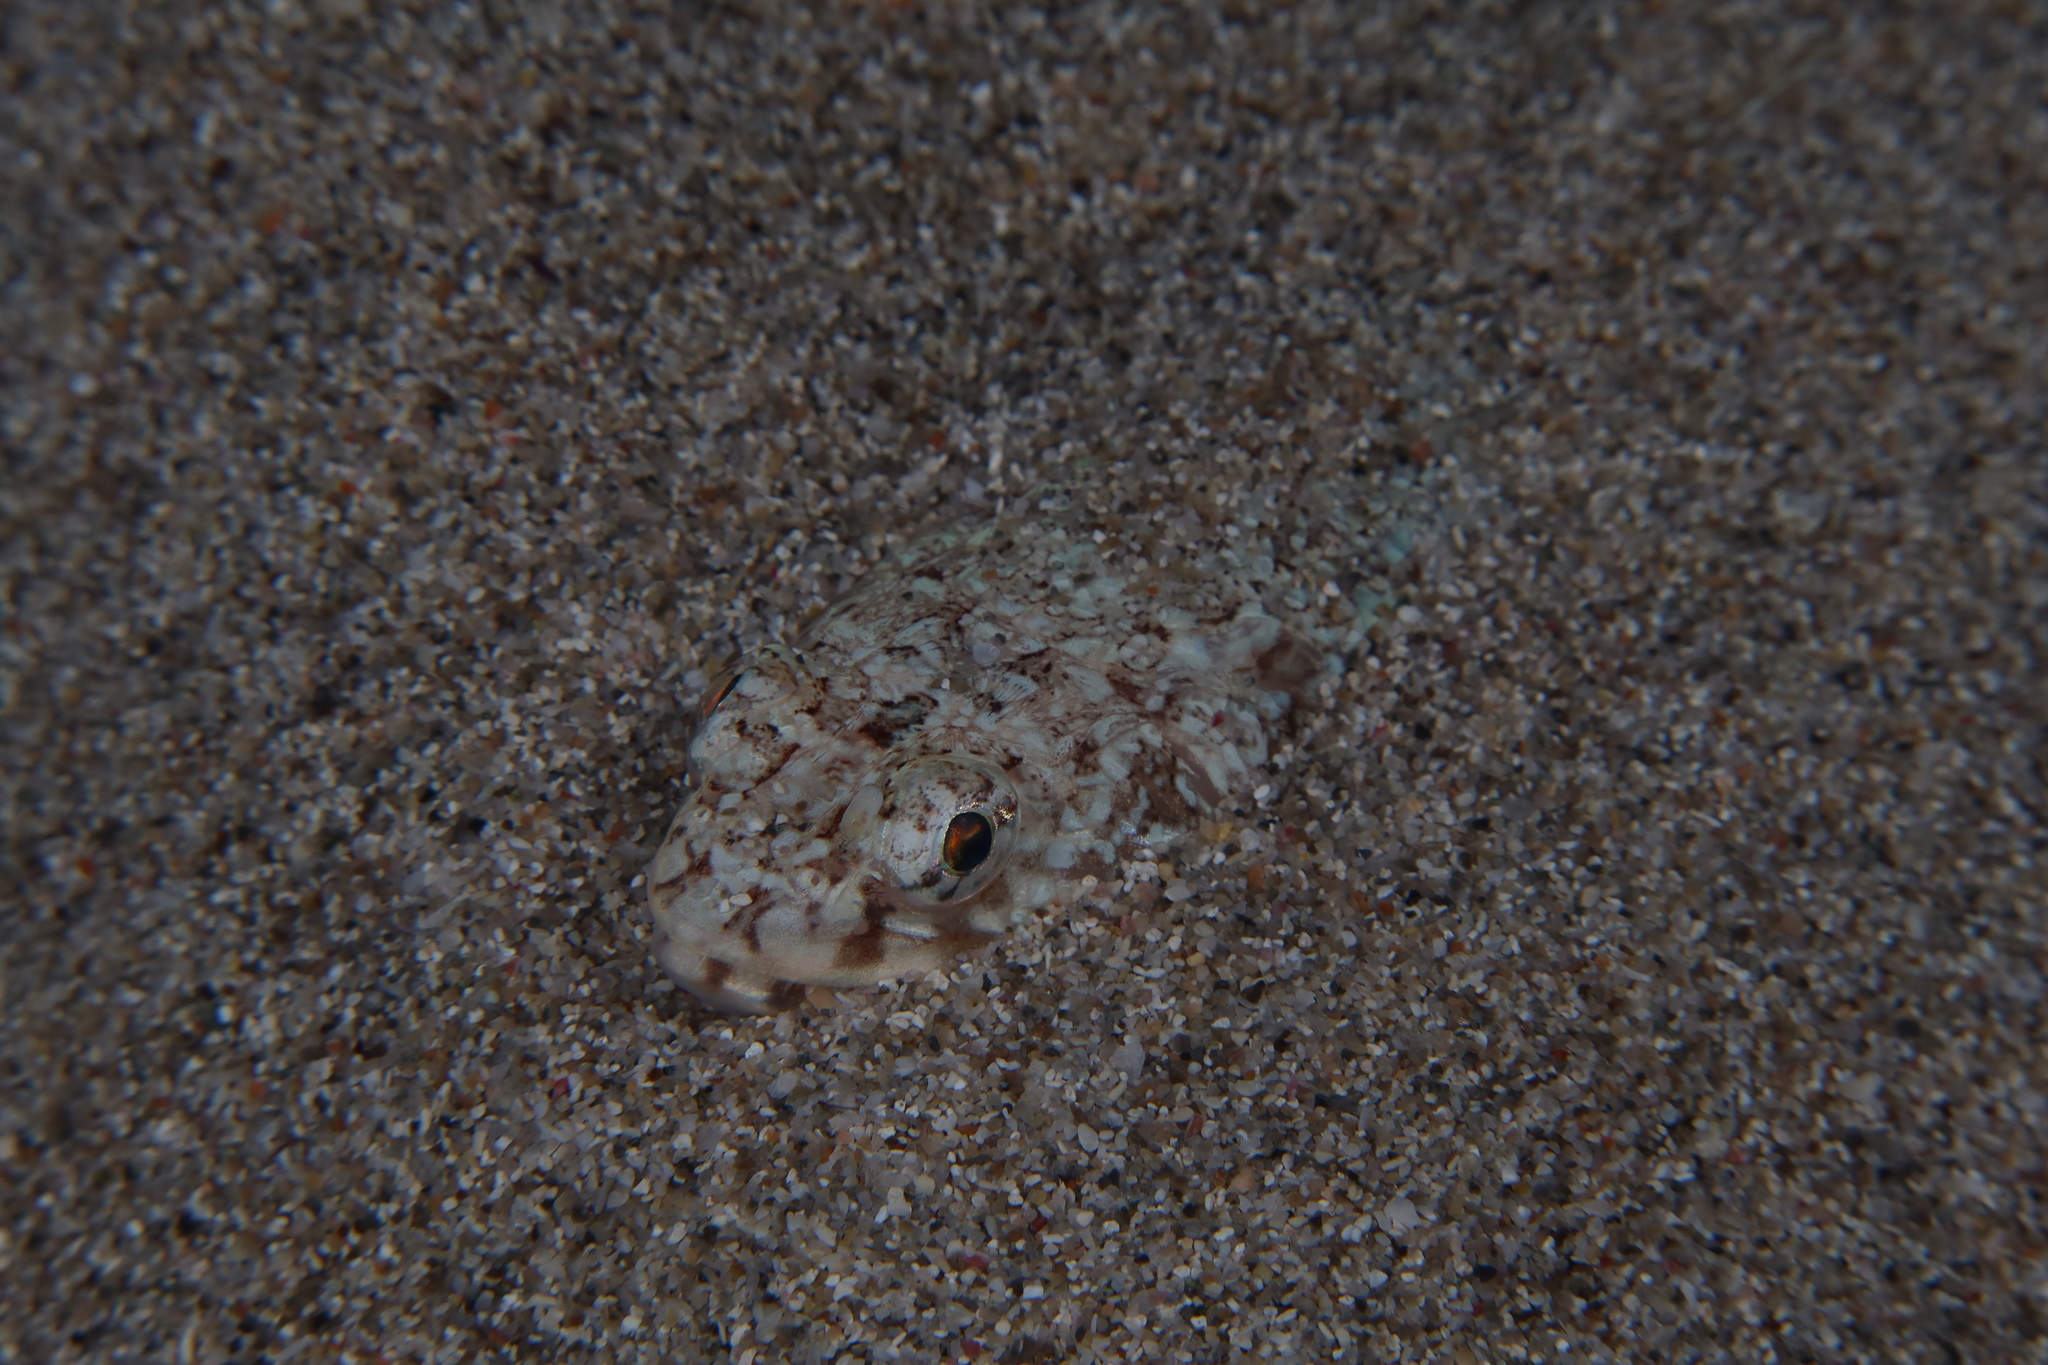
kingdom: Animalia
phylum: Chordata
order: Aulopiformes
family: Synodontidae
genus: Synodus
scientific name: Synodus saurus
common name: Atlantic lizardfish
